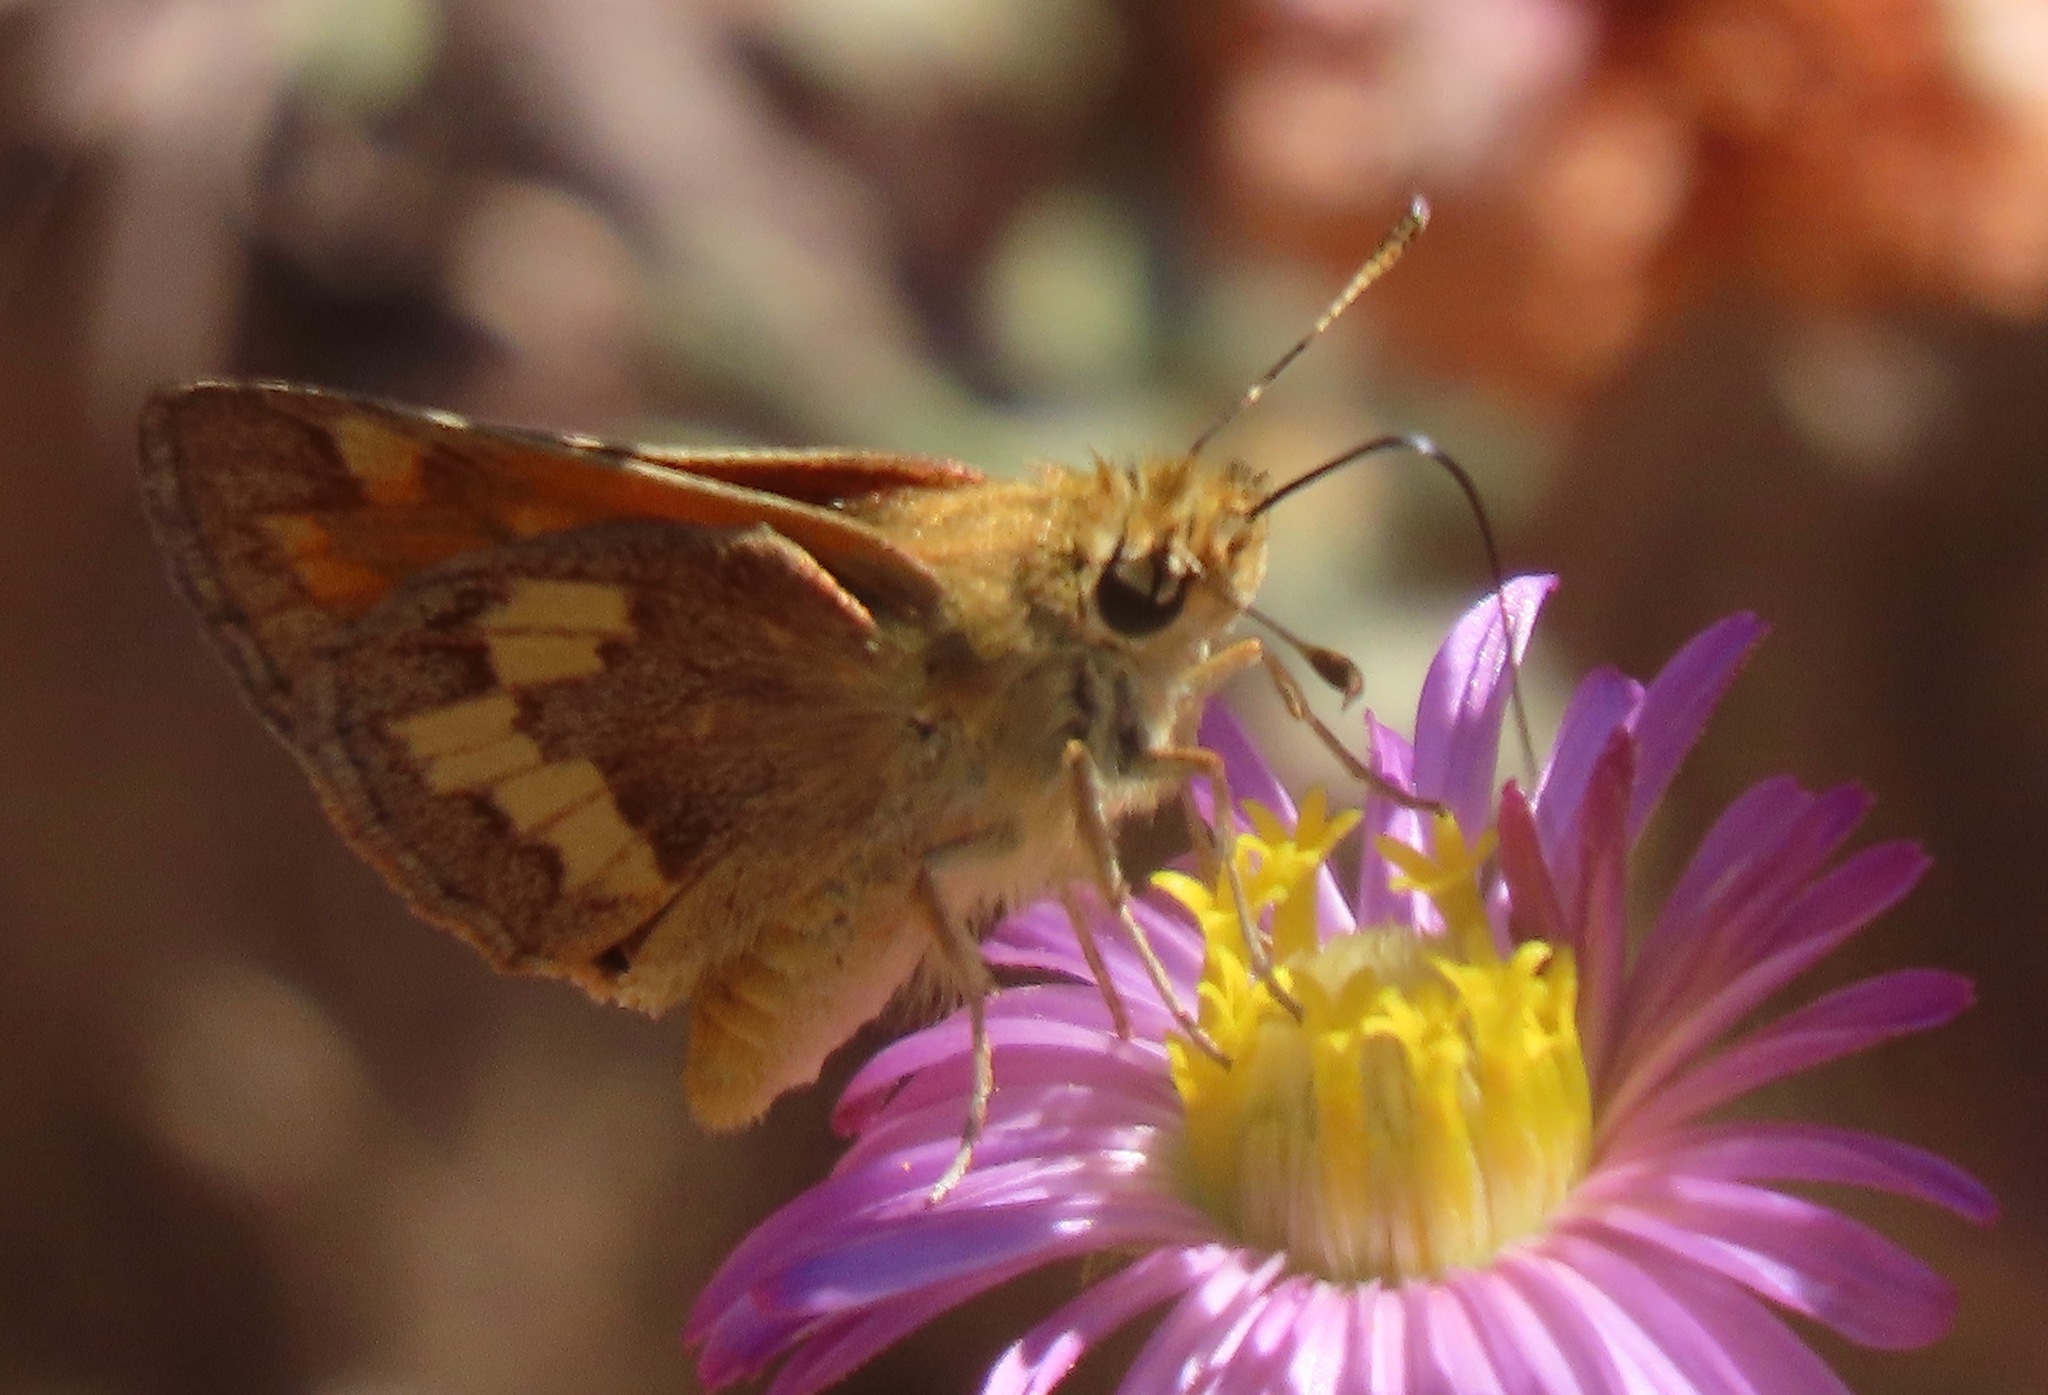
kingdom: Animalia
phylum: Arthropoda
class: Insecta
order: Lepidoptera
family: Hesperiidae
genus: Ochlodes
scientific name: Ochlodes sylvanoides
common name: Woodland skipper
